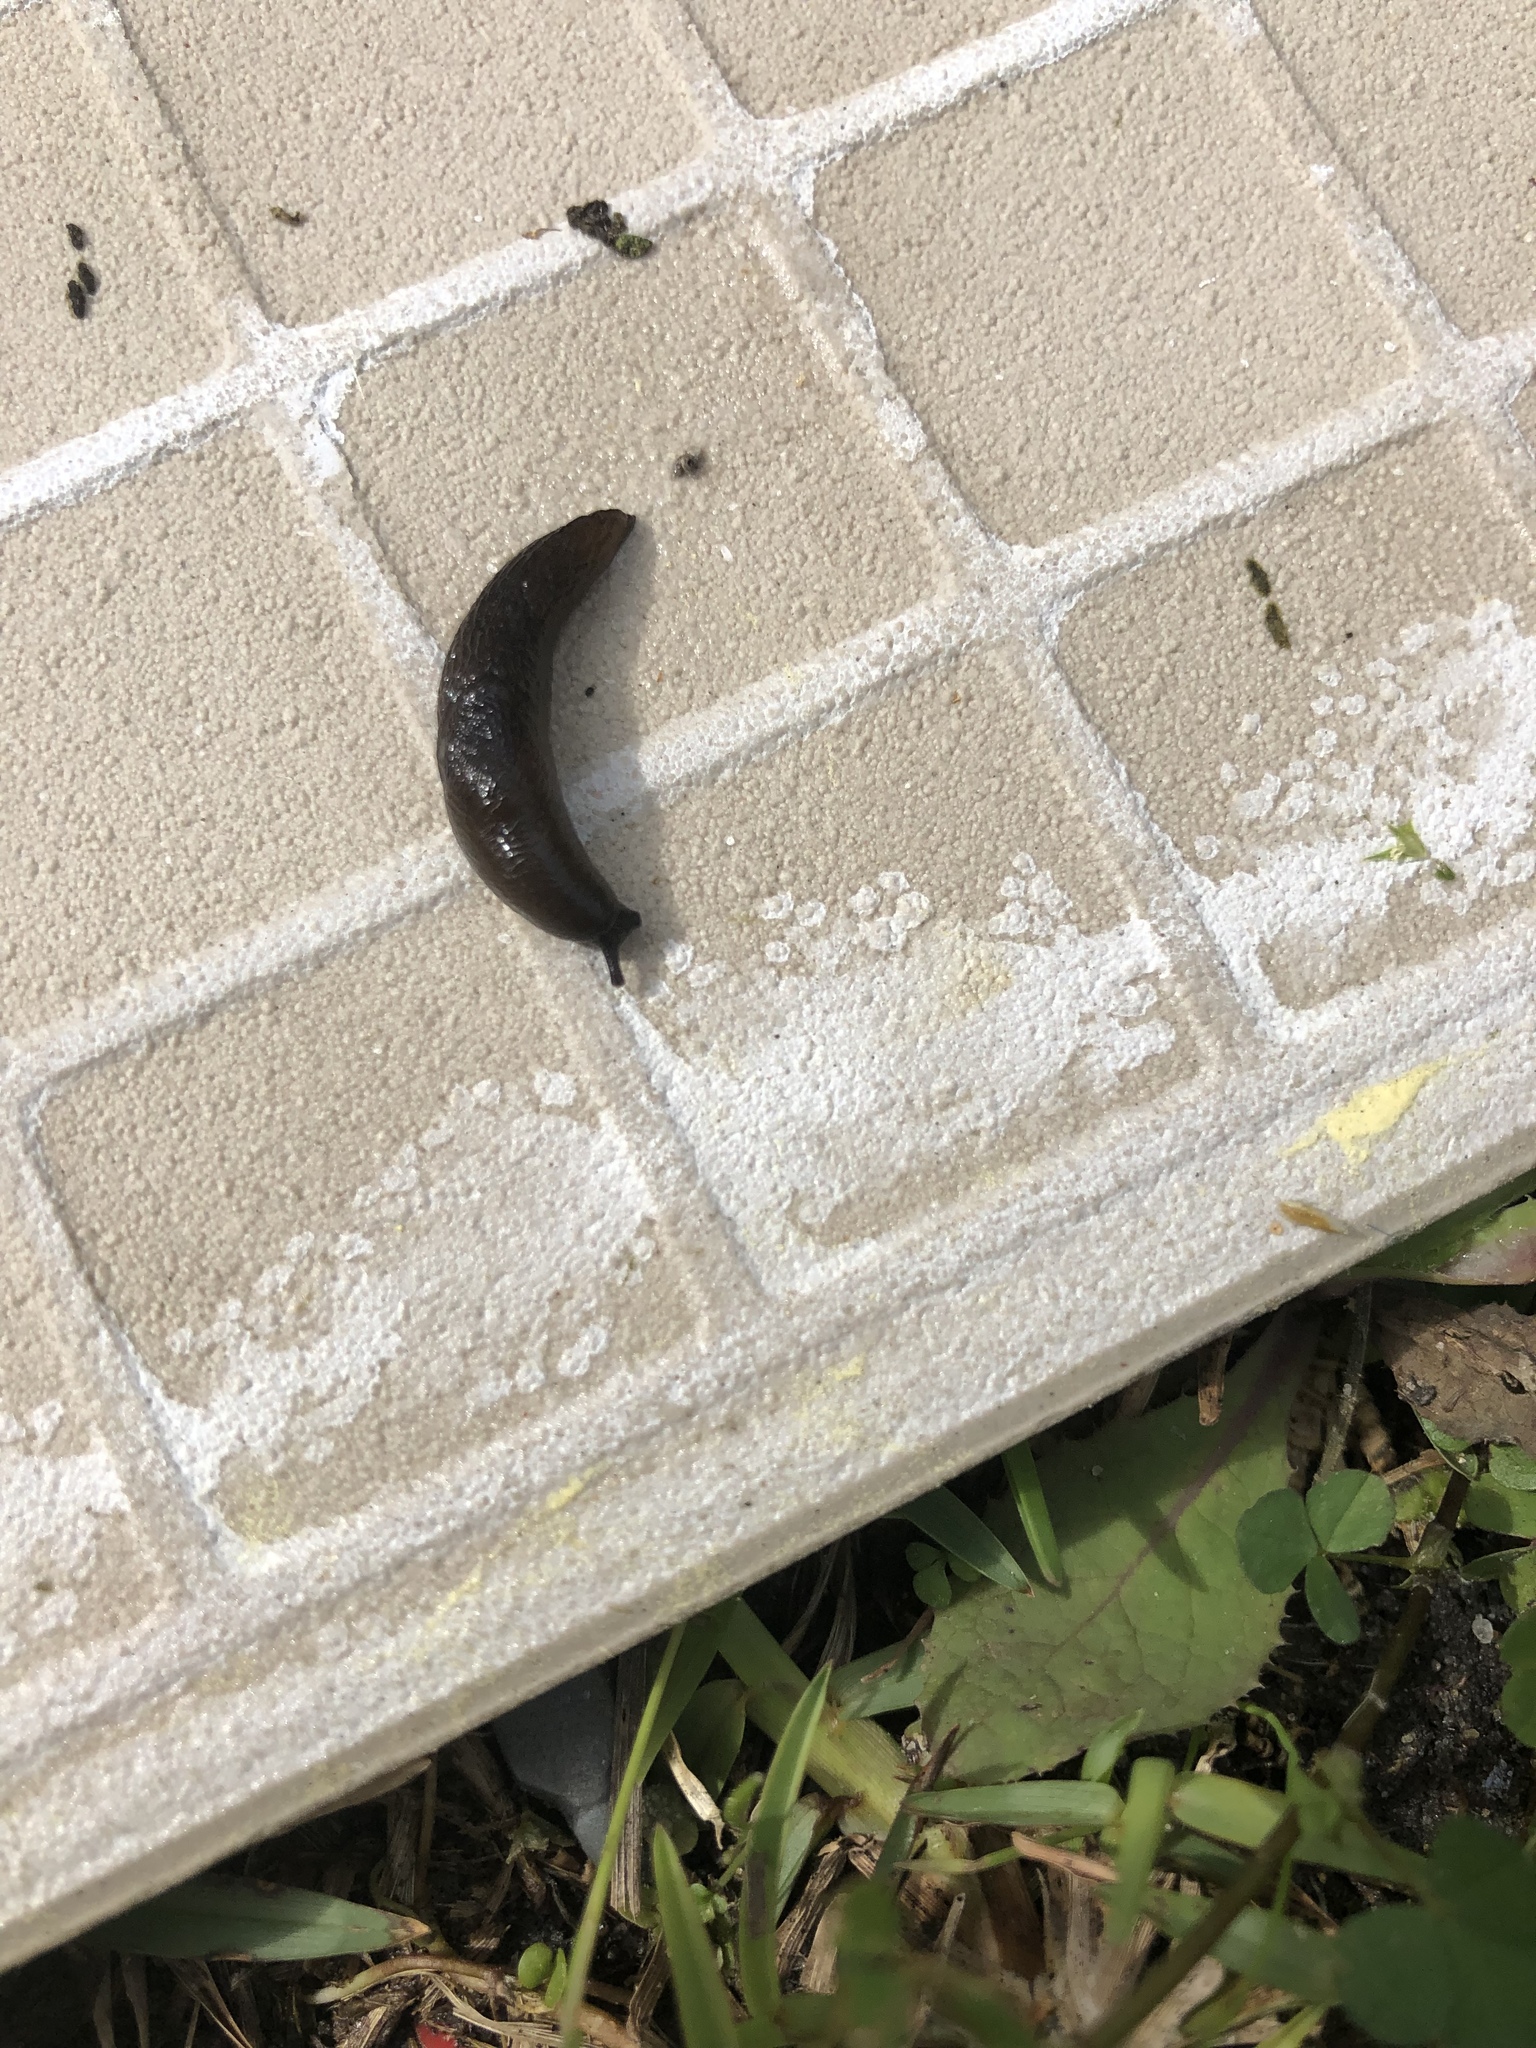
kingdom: Animalia
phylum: Mollusca
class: Gastropoda
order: Stylommatophora
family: Agriolimacidae
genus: Deroceras
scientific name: Deroceras laeve
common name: Marsh slug
